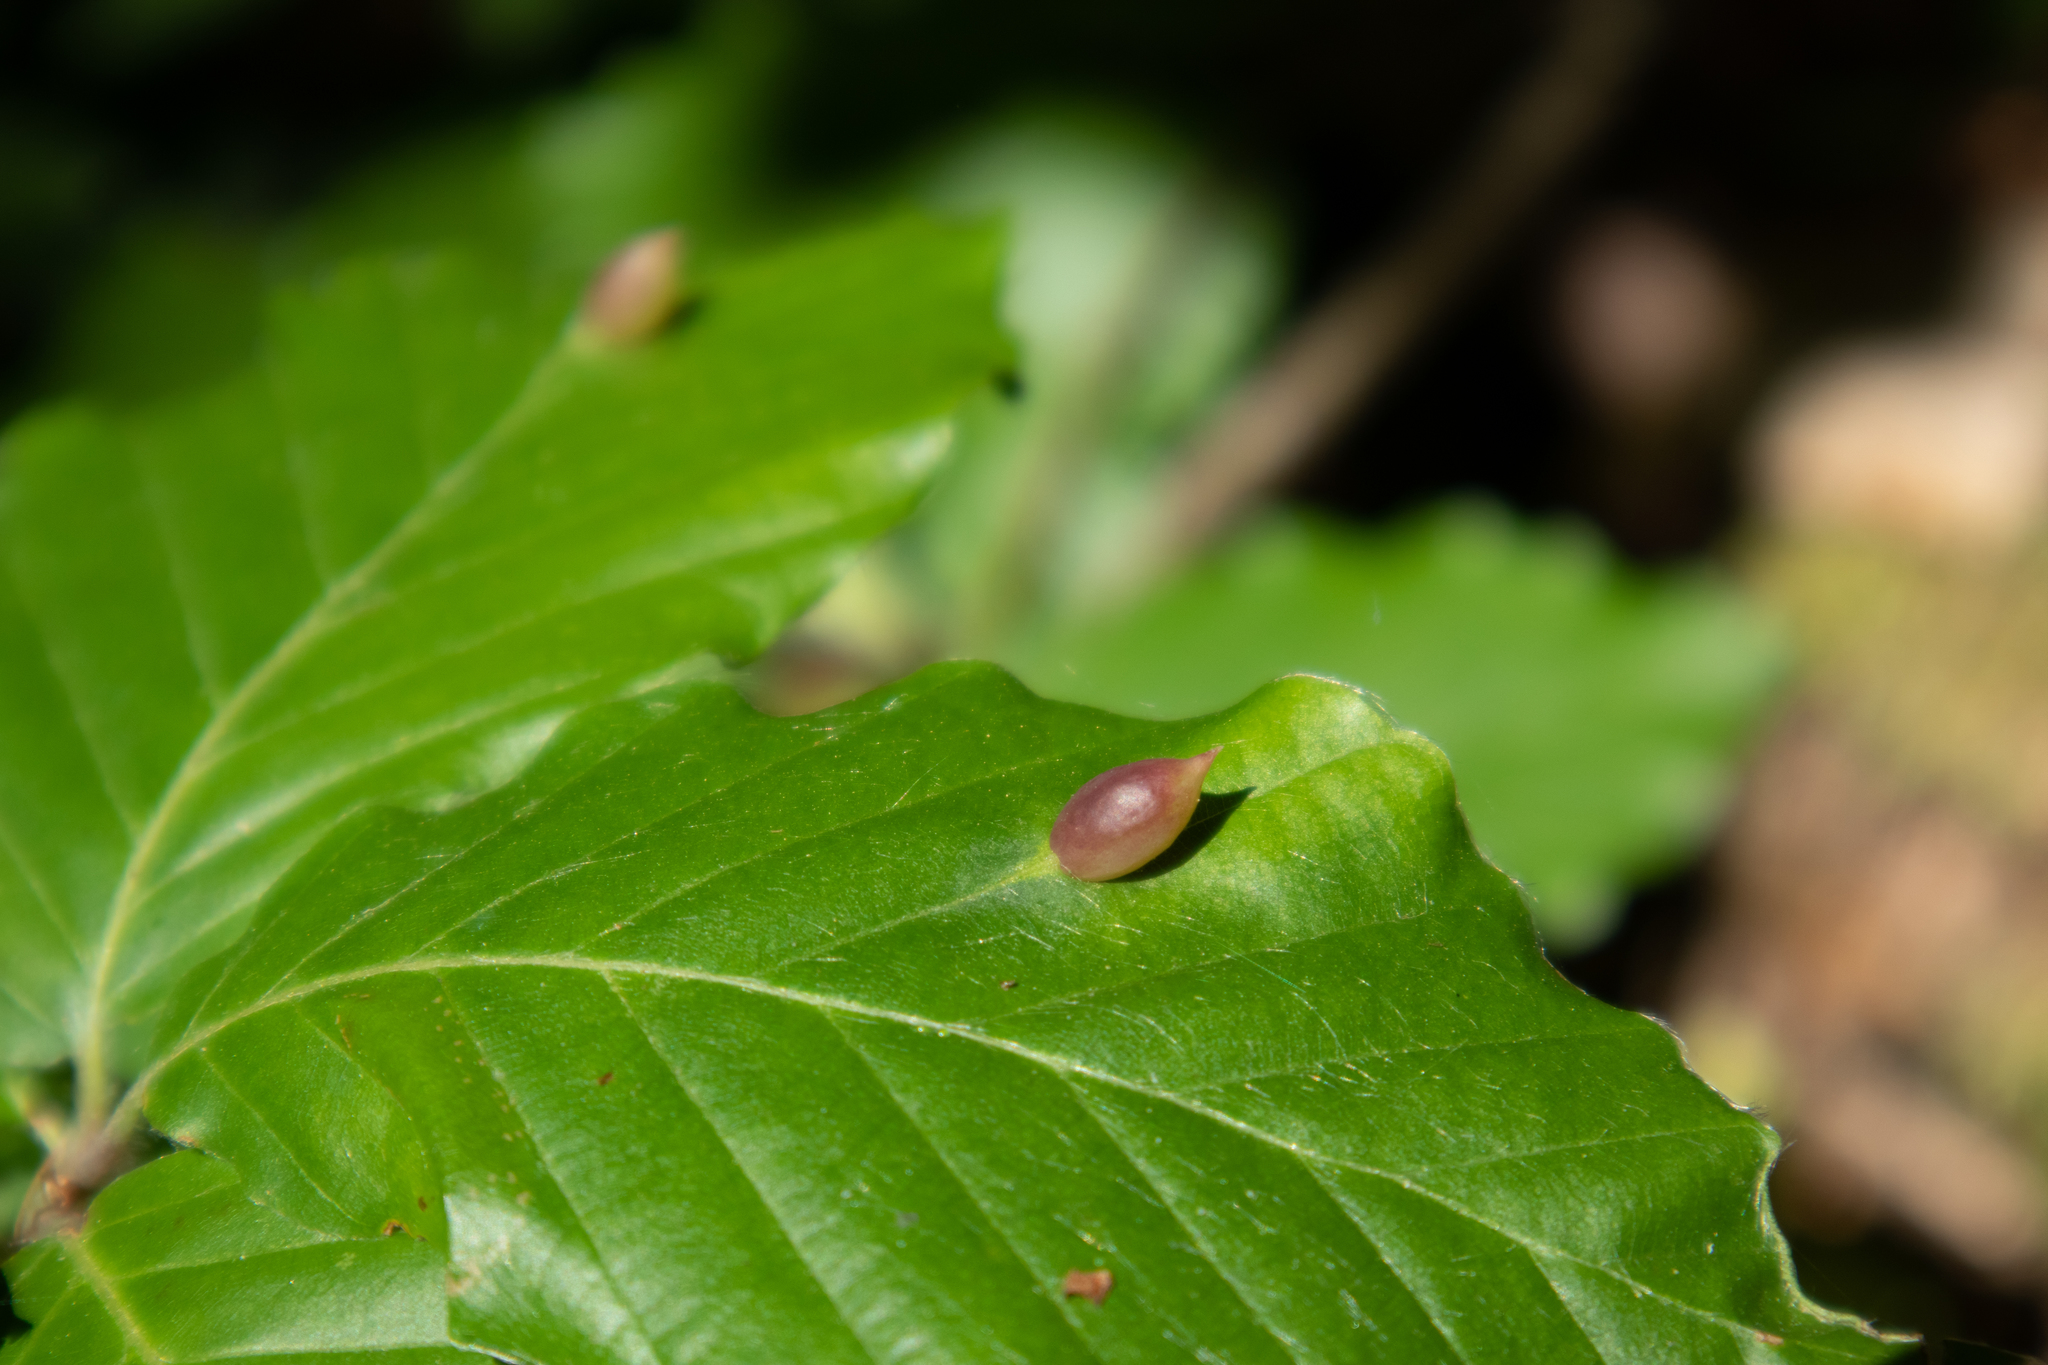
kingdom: Animalia
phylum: Arthropoda
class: Insecta
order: Diptera
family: Cecidomyiidae
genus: Mikiola
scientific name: Mikiola fagi
